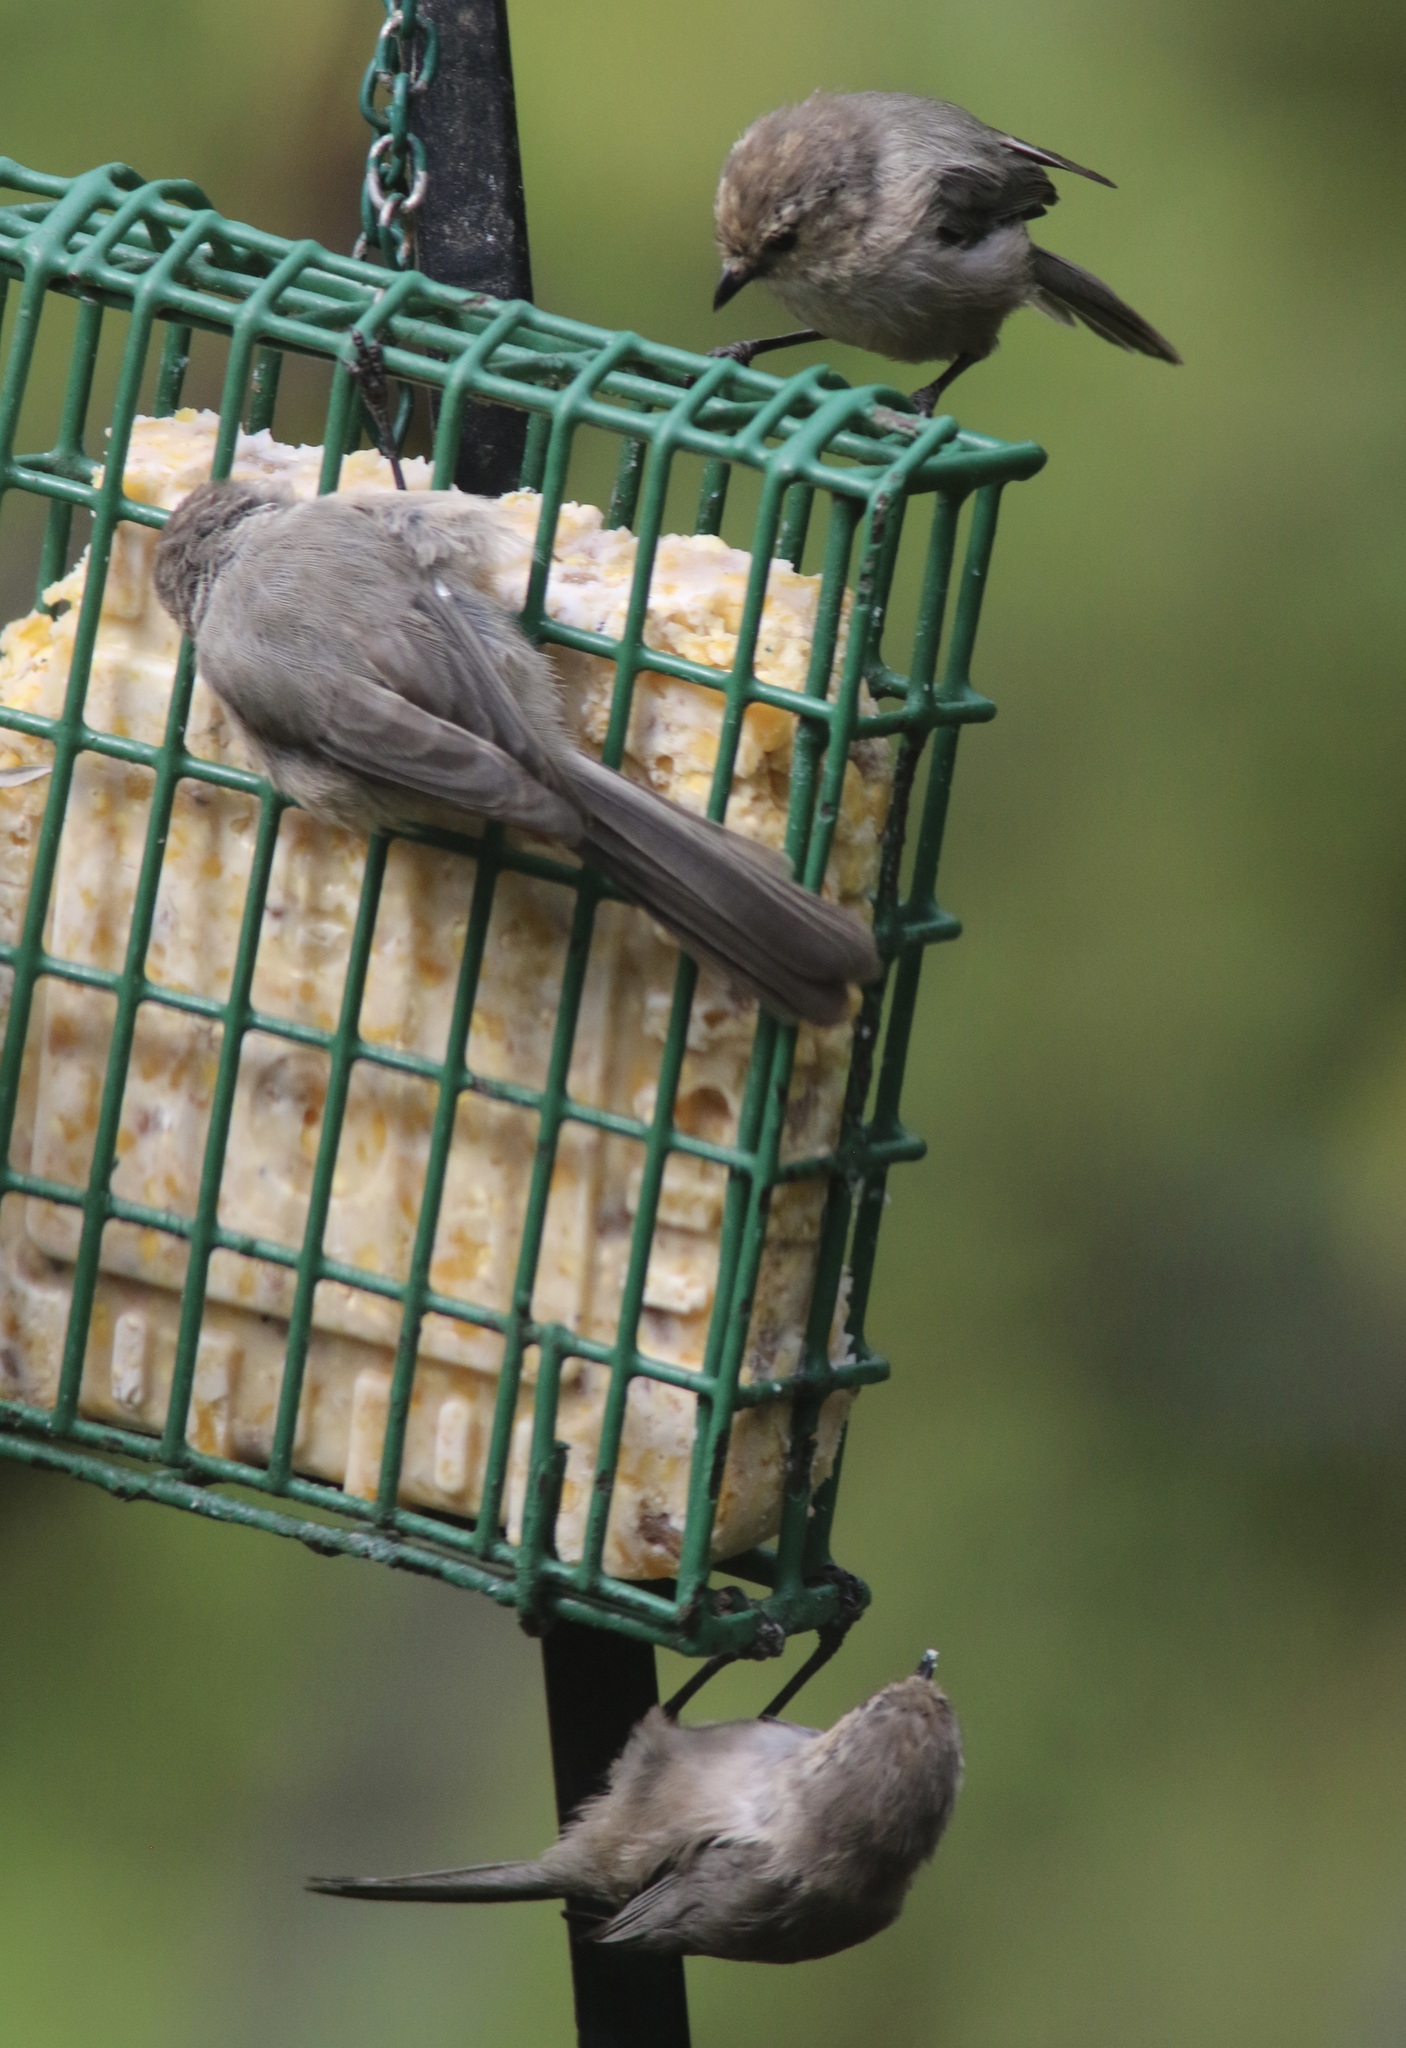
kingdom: Animalia
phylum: Chordata
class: Aves
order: Passeriformes
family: Aegithalidae
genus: Psaltriparus
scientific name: Psaltriparus minimus
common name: American bushtit
